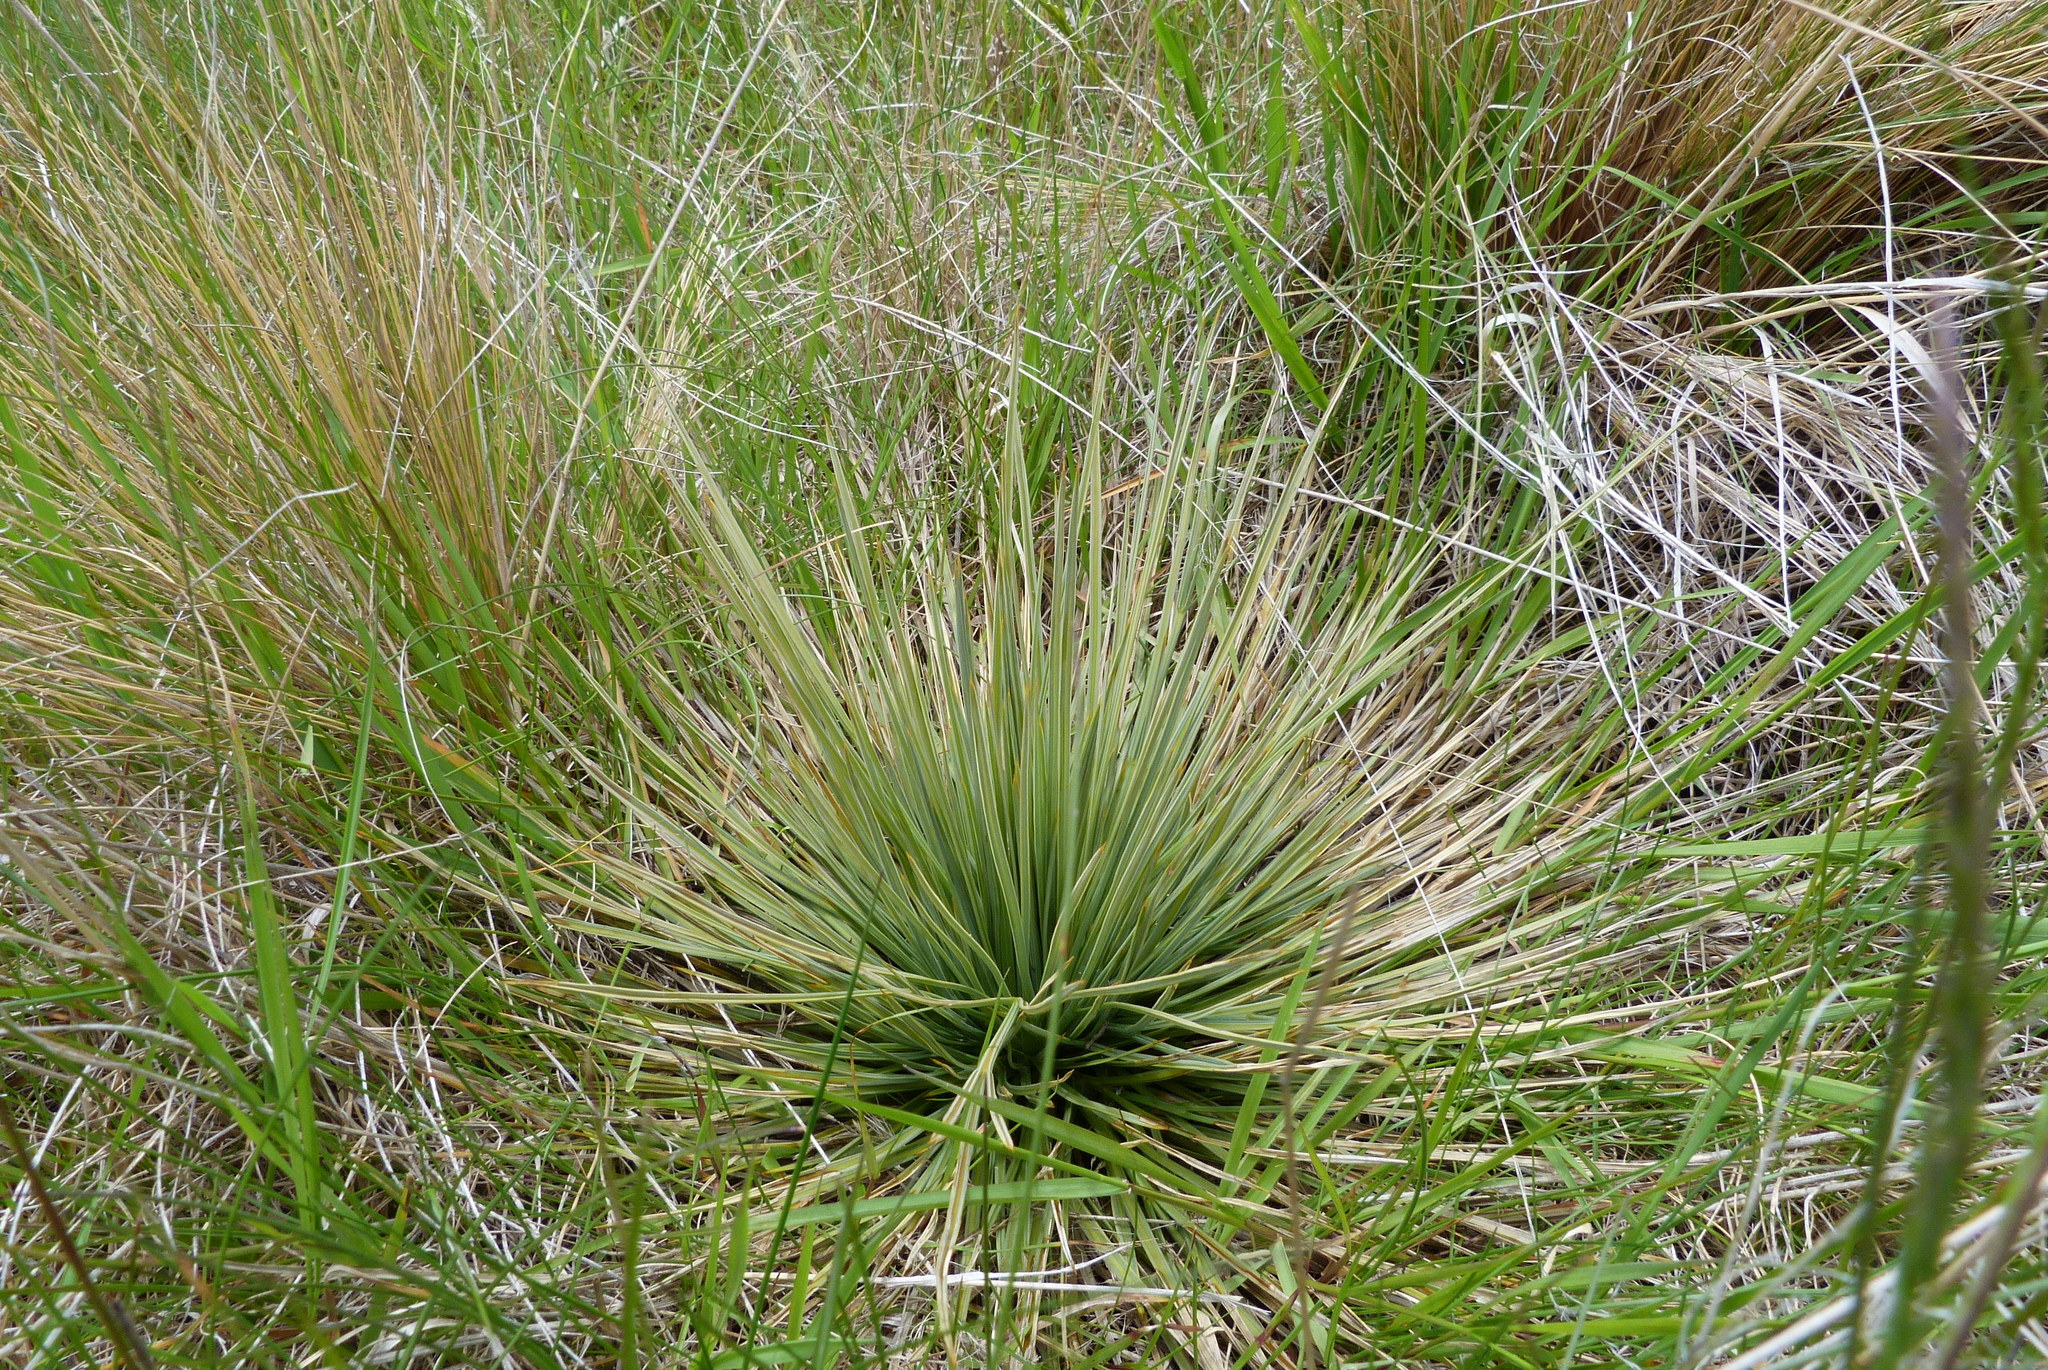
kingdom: Plantae
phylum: Tracheophyta
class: Magnoliopsida
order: Apiales
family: Apiaceae
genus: Aciphylla
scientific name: Aciphylla subflabellata
